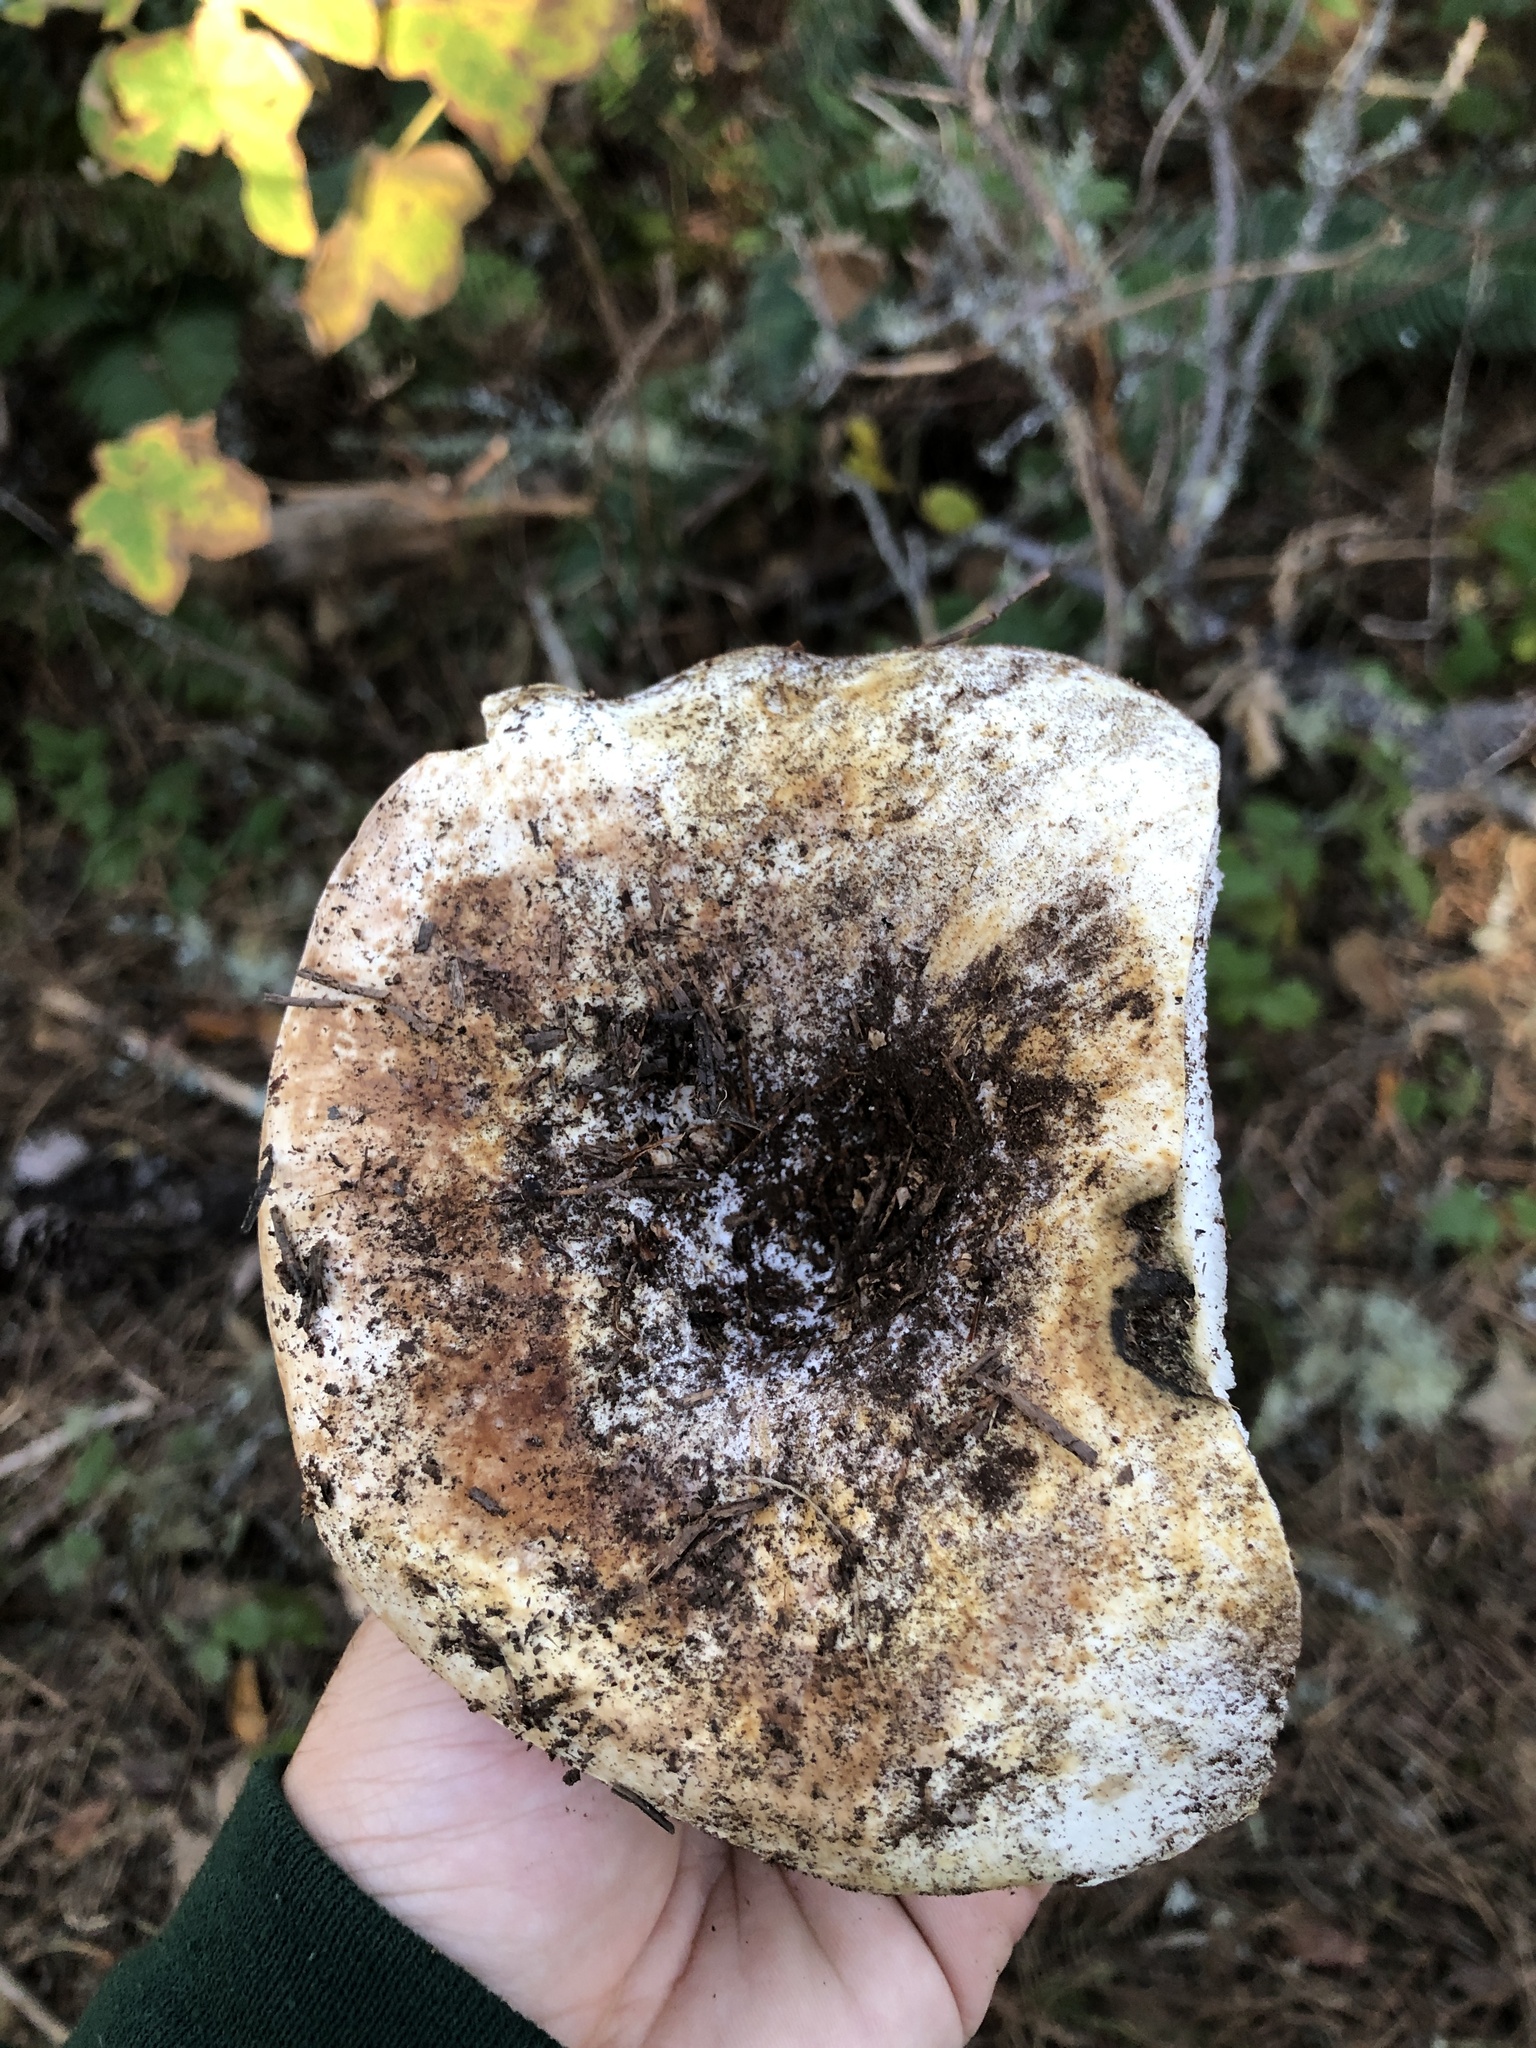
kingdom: Fungi
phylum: Basidiomycota
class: Agaricomycetes
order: Russulales
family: Russulaceae
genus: Russula
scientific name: Russula brevipes
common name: Short-stemmed russula
